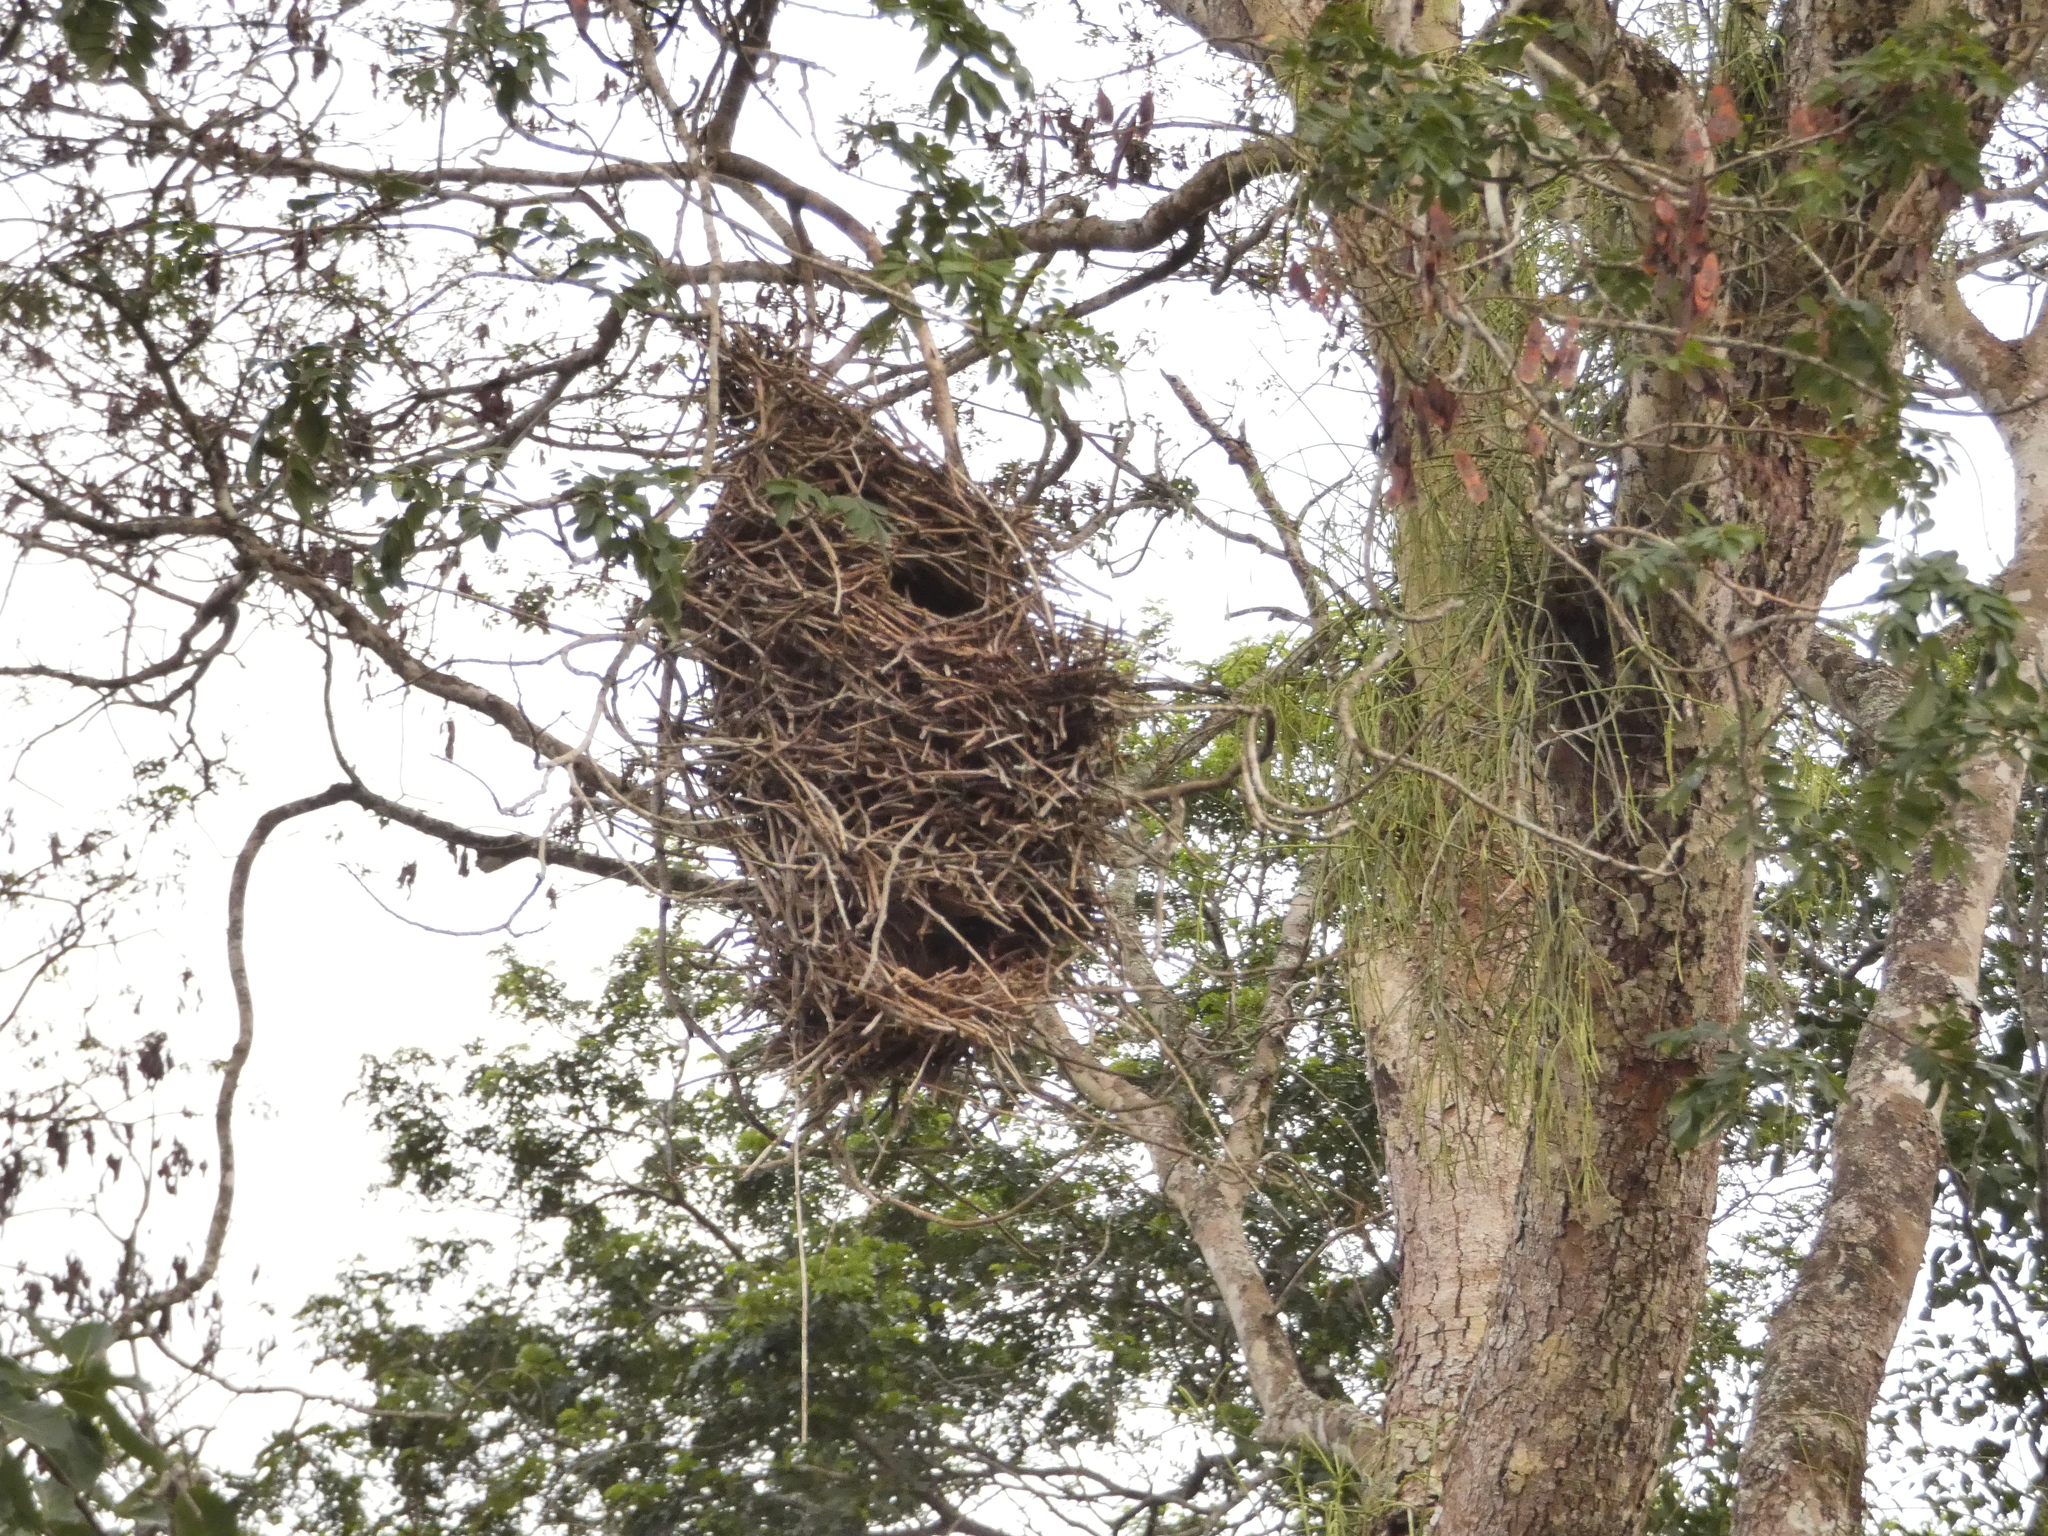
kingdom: Animalia
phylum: Chordata
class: Aves
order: Passeriformes
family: Furnariidae
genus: Phacellodomus
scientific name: Phacellodomus rufifrons
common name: Rufous-fronted thornbird
